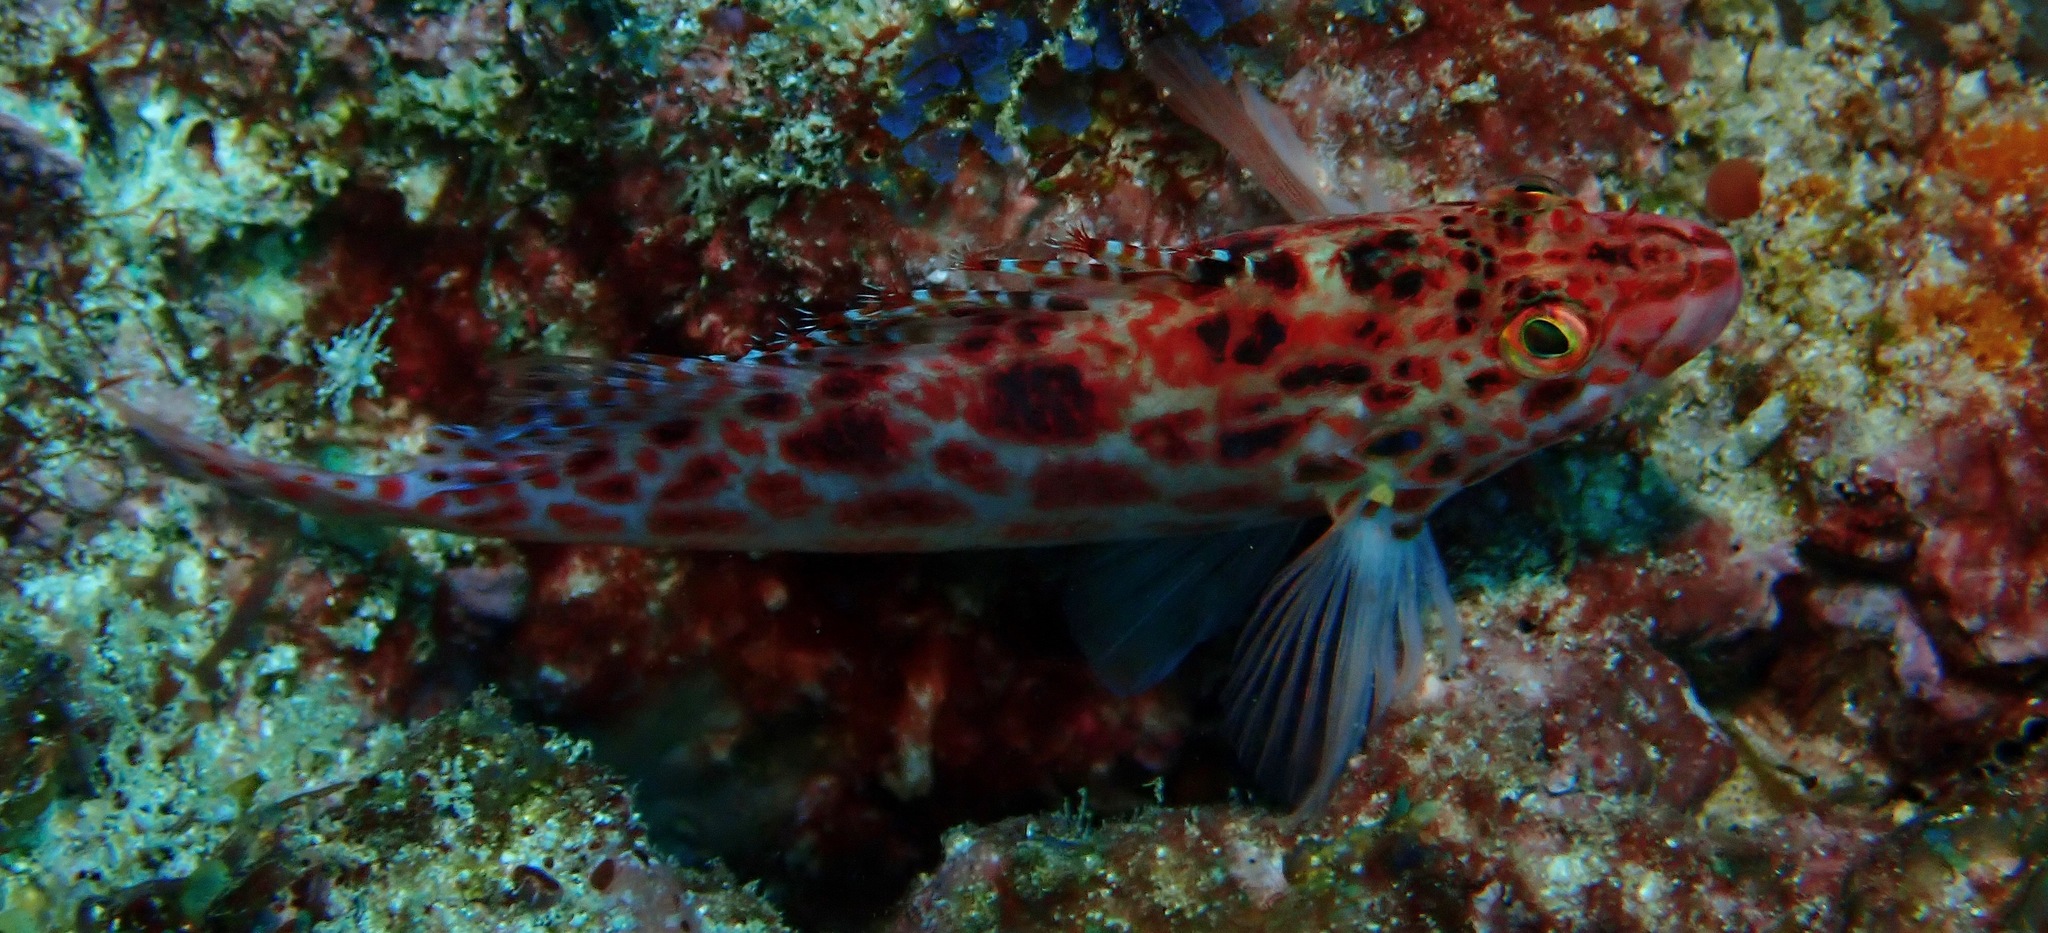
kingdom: Animalia
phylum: Chordata
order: Perciformes
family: Cirrhitidae
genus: Cirrhitichthys
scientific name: Cirrhitichthys oxycephalus
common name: Spotted hawkfish
